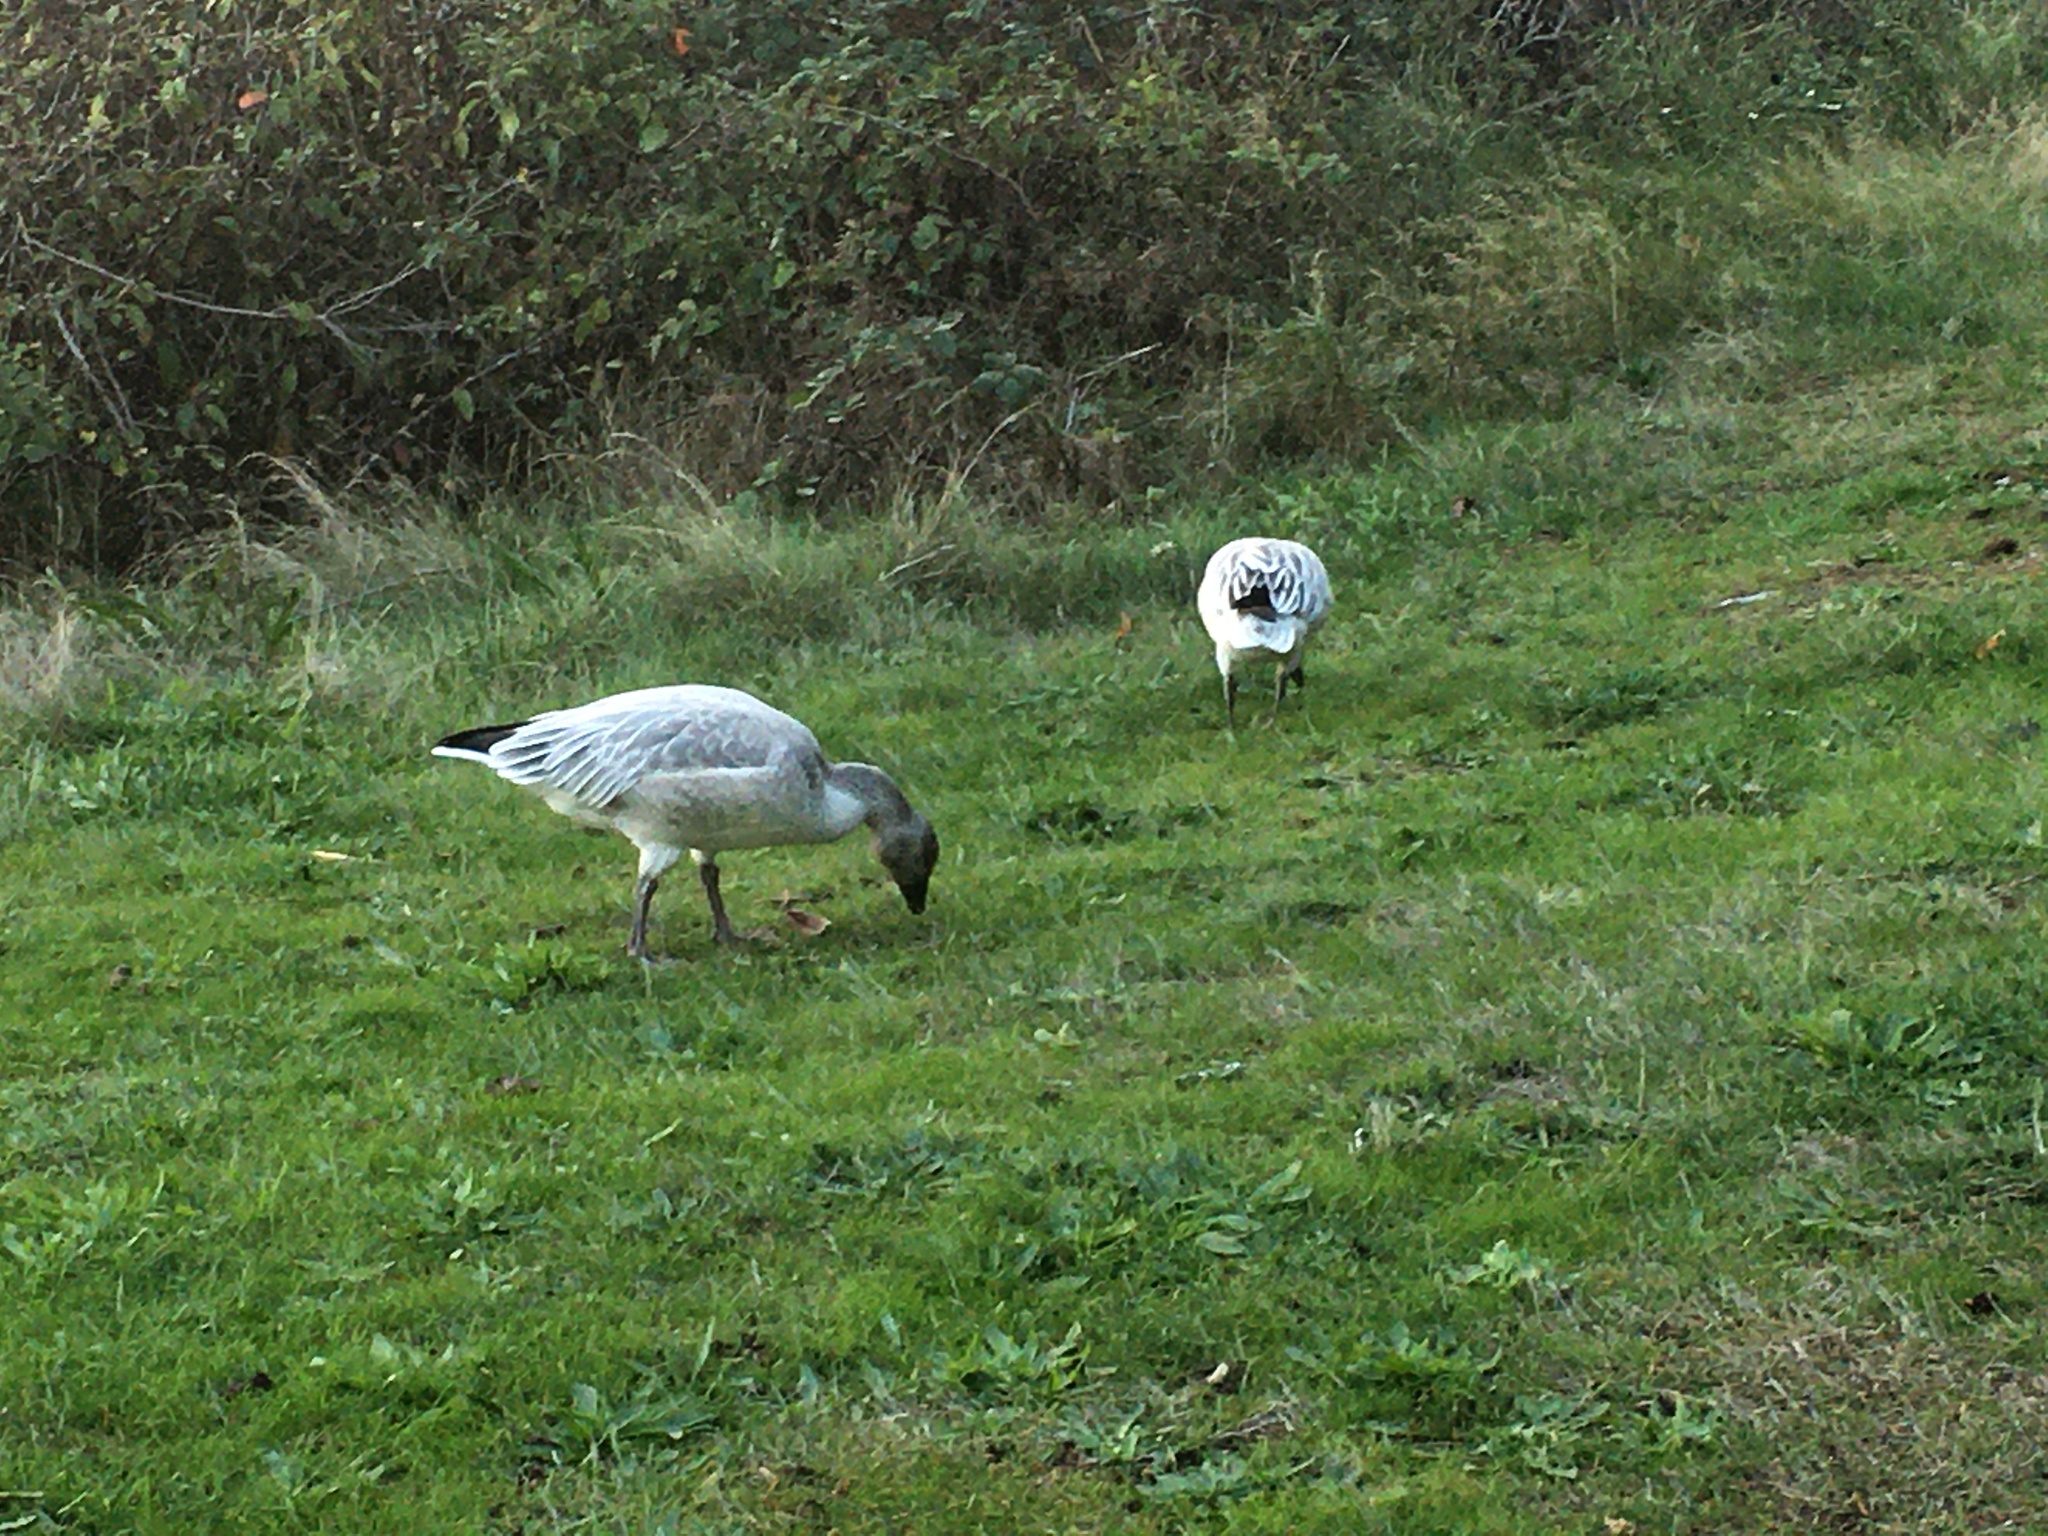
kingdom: Animalia
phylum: Chordata
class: Aves
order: Anseriformes
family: Anatidae
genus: Anser
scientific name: Anser caerulescens
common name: Snow goose
